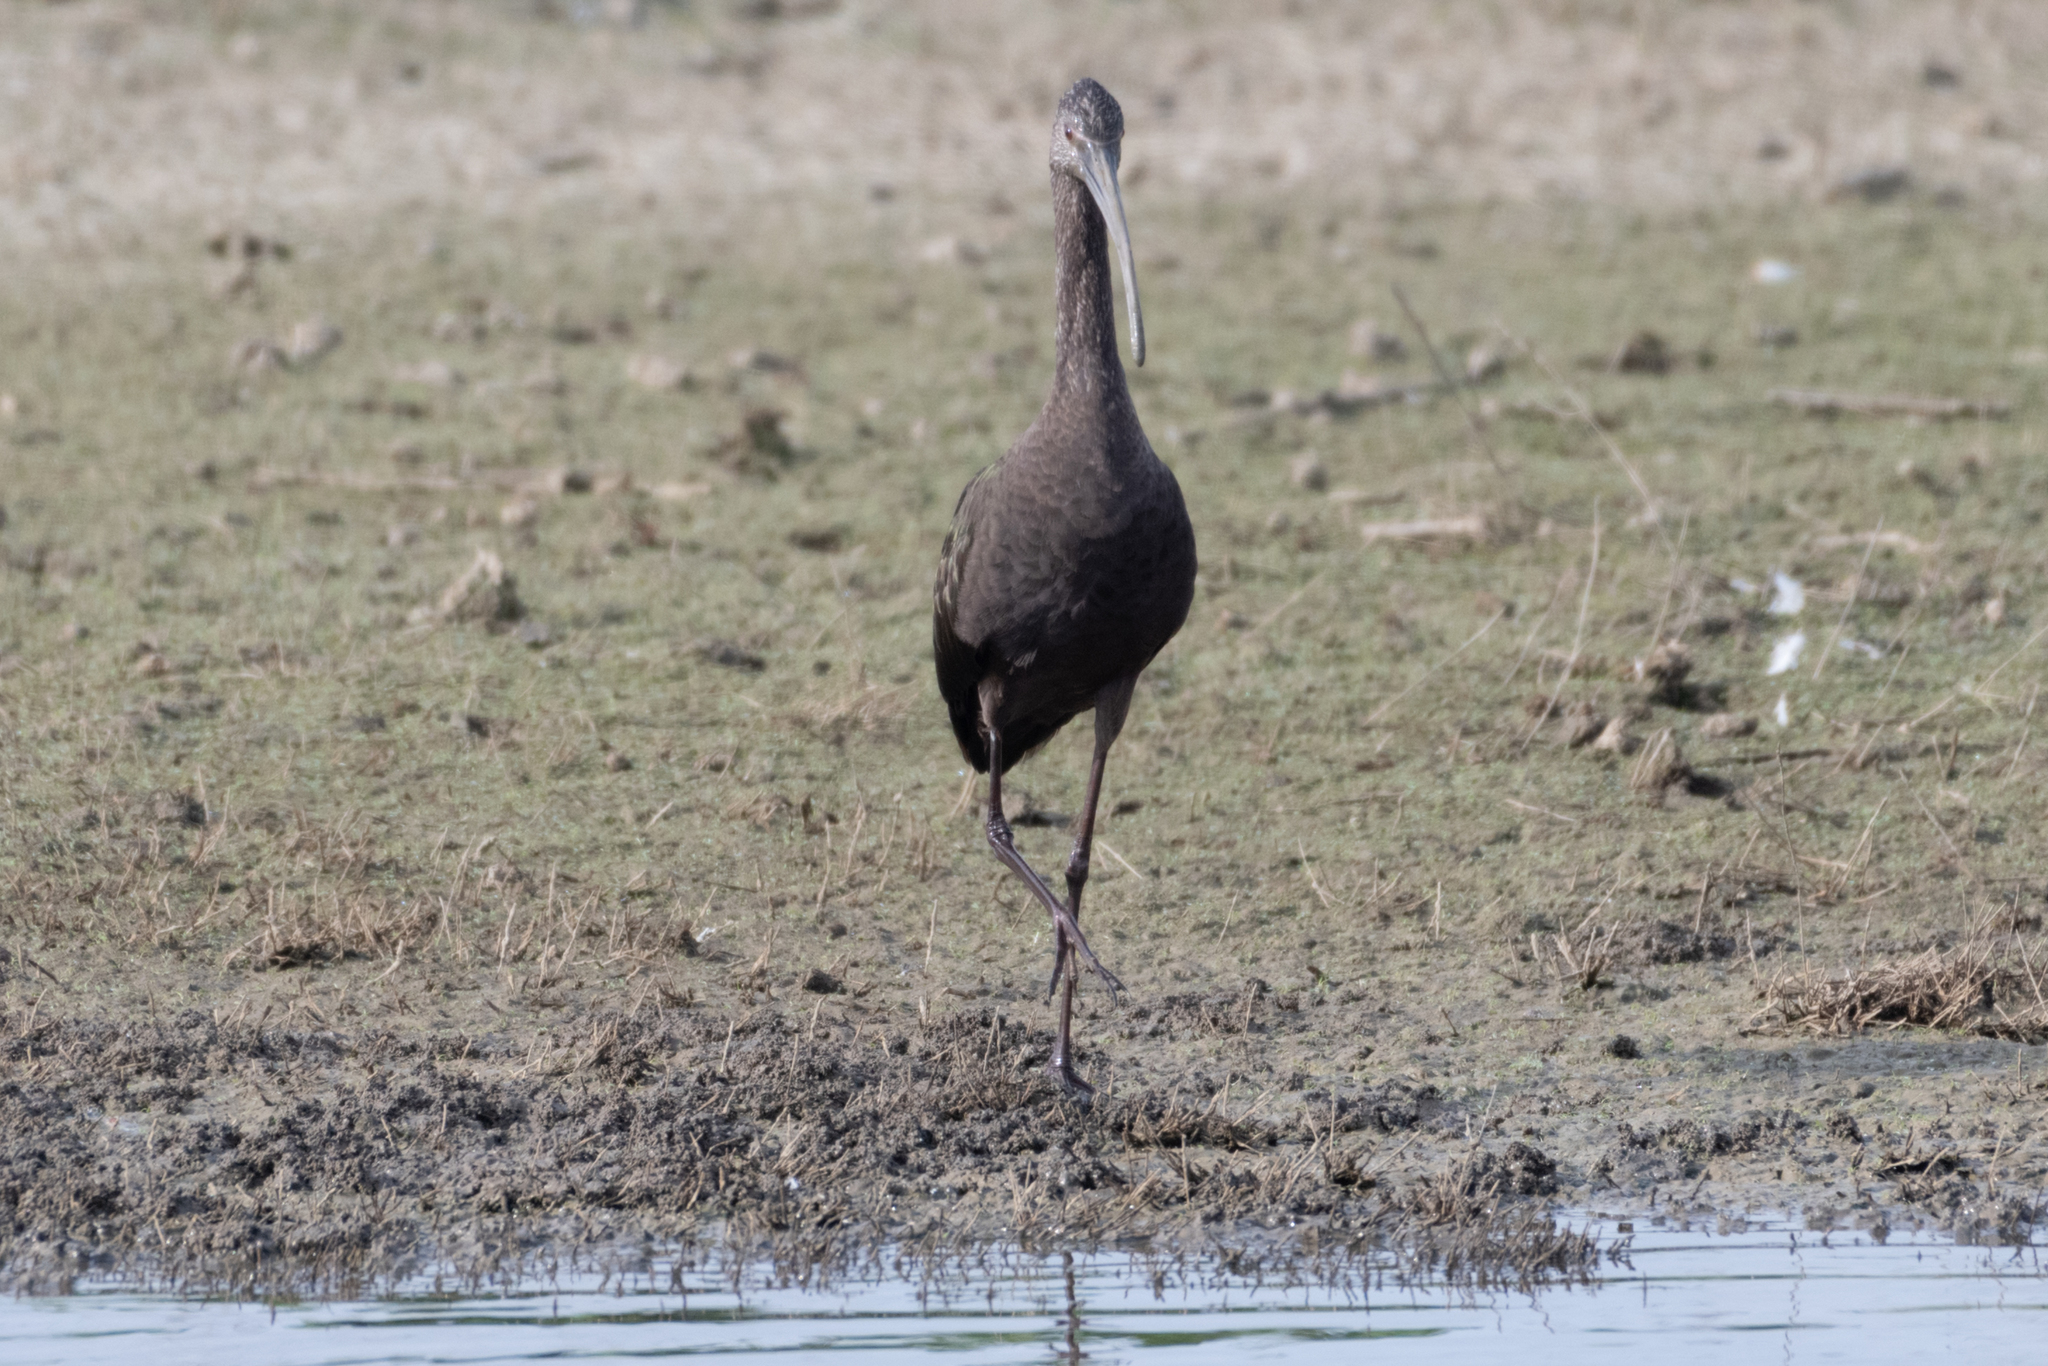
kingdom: Animalia
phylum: Chordata
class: Aves
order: Pelecaniformes
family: Threskiornithidae
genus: Plegadis
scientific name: Plegadis chihi
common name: White-faced ibis
